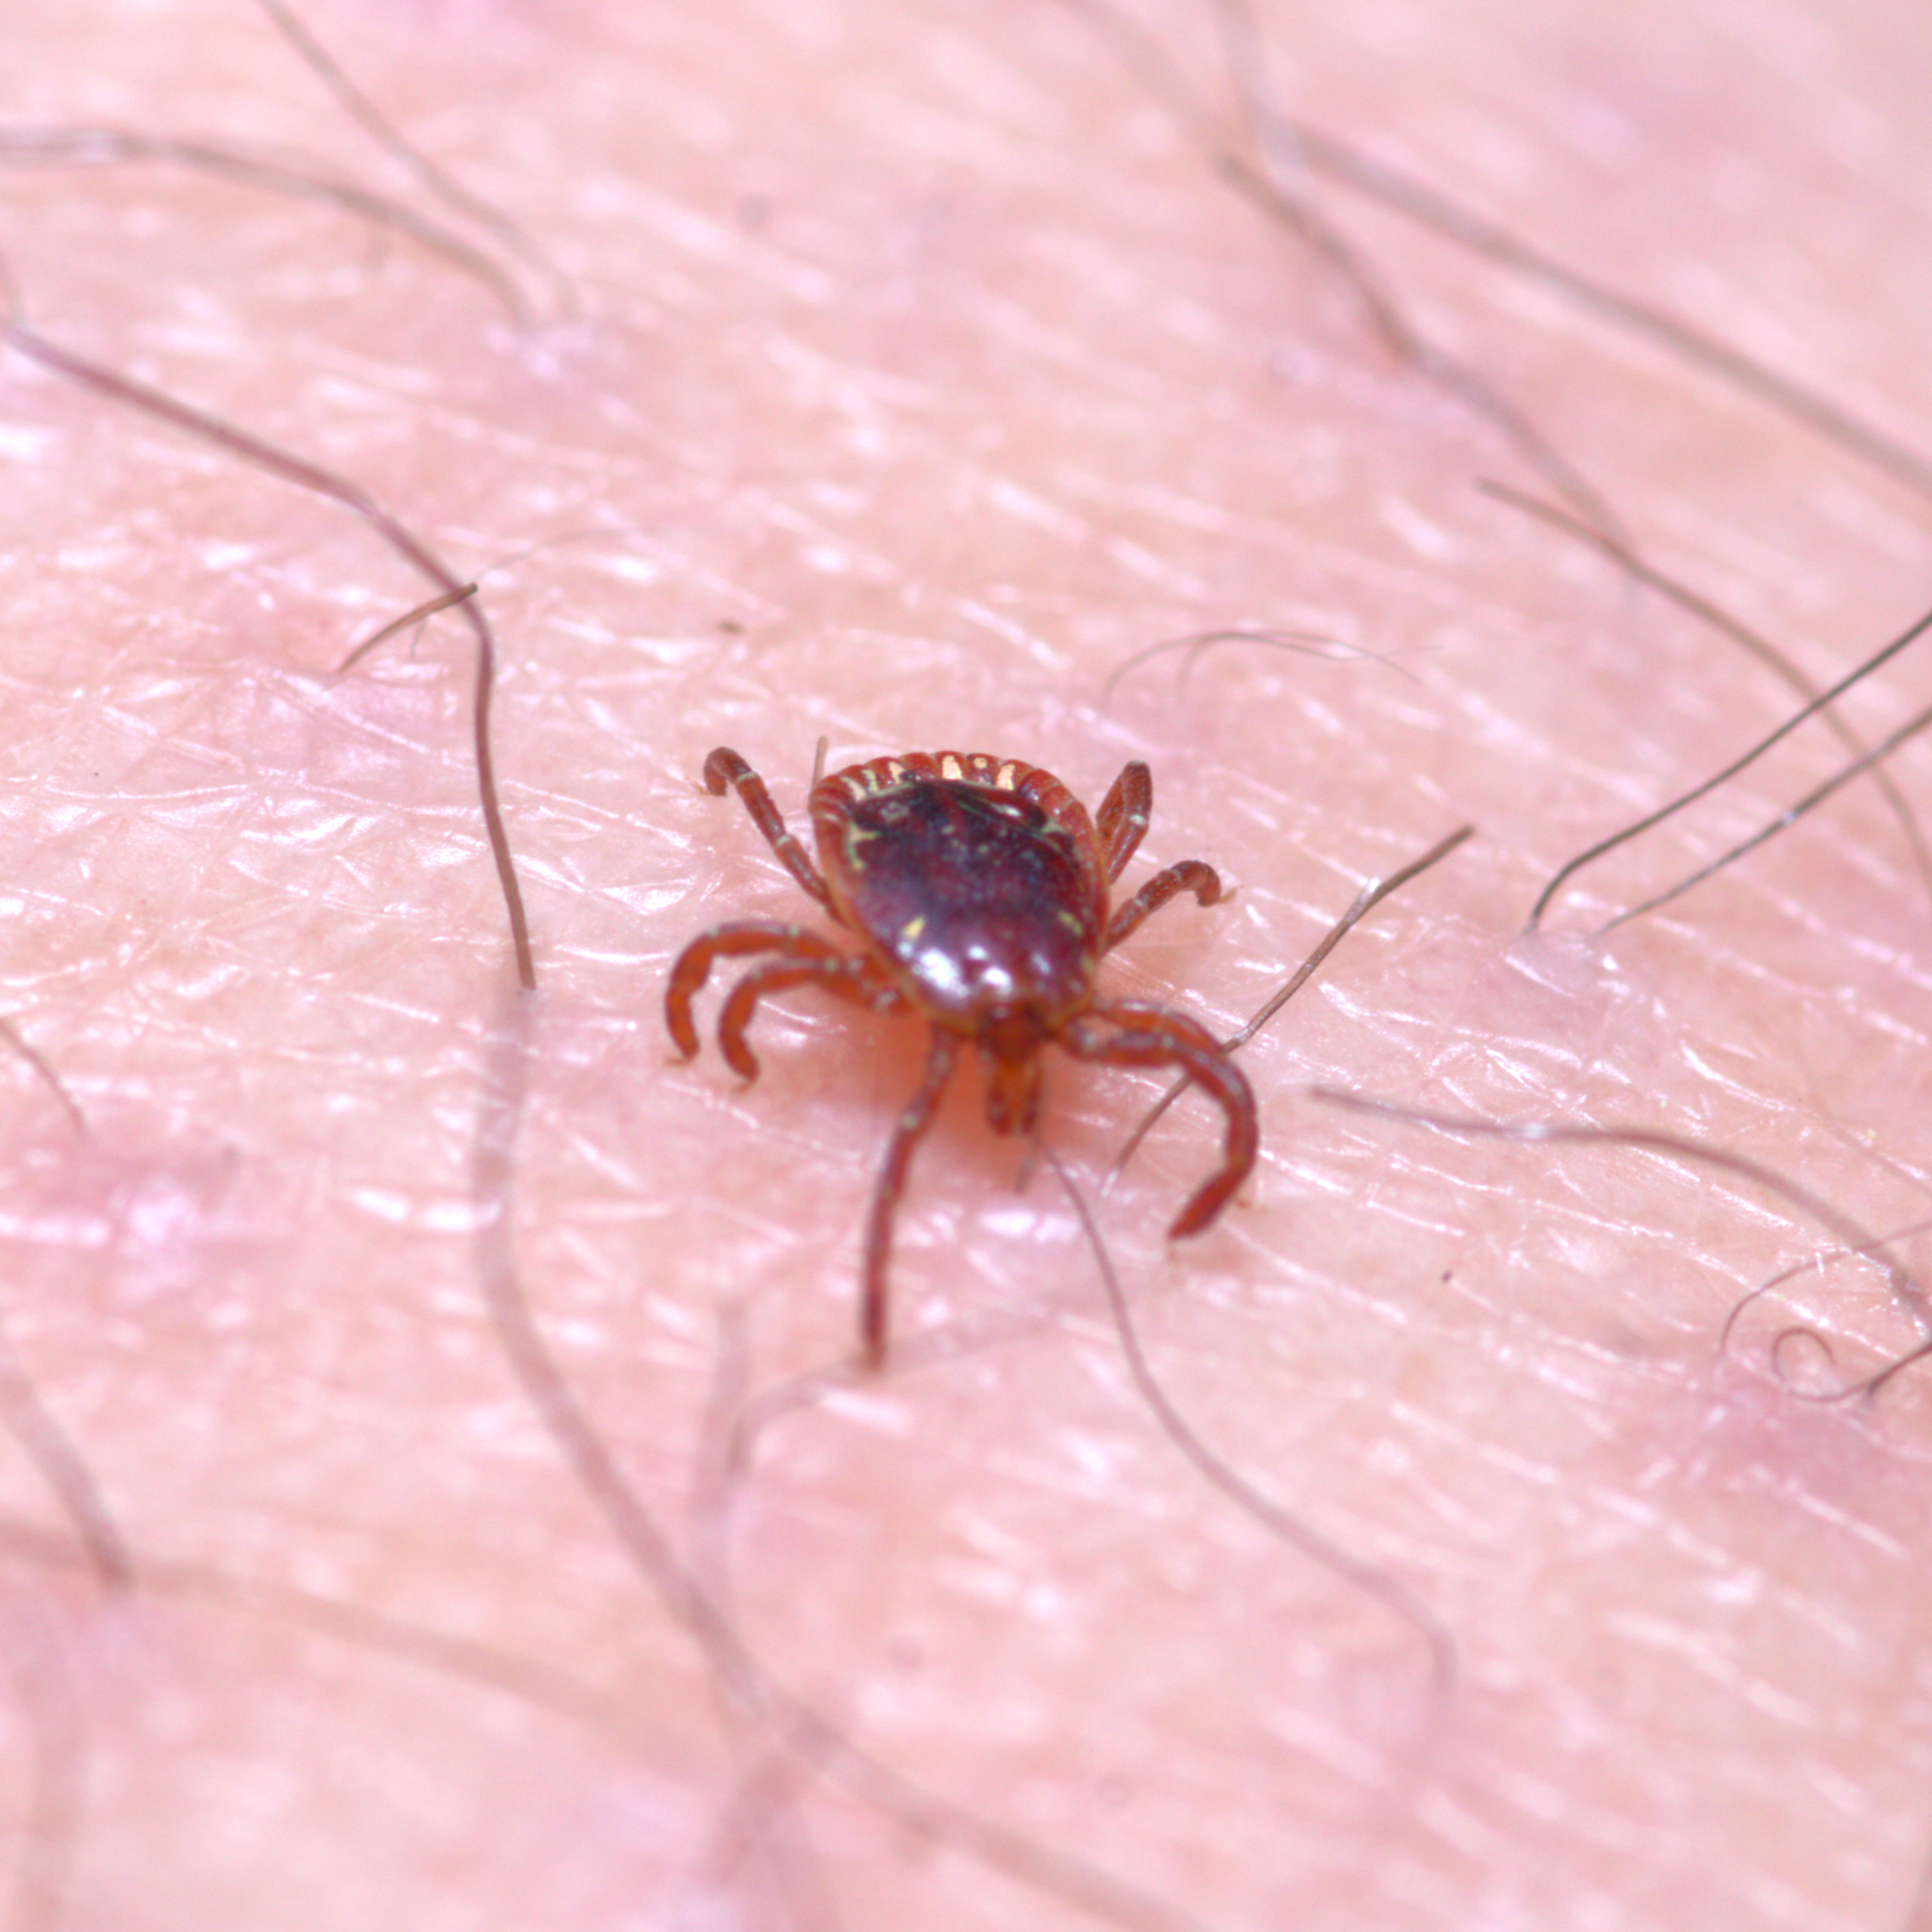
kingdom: Animalia
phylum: Arthropoda
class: Arachnida
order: Ixodida
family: Ixodidae
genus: Amblyomma
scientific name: Amblyomma americanum
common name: Lone star tick
